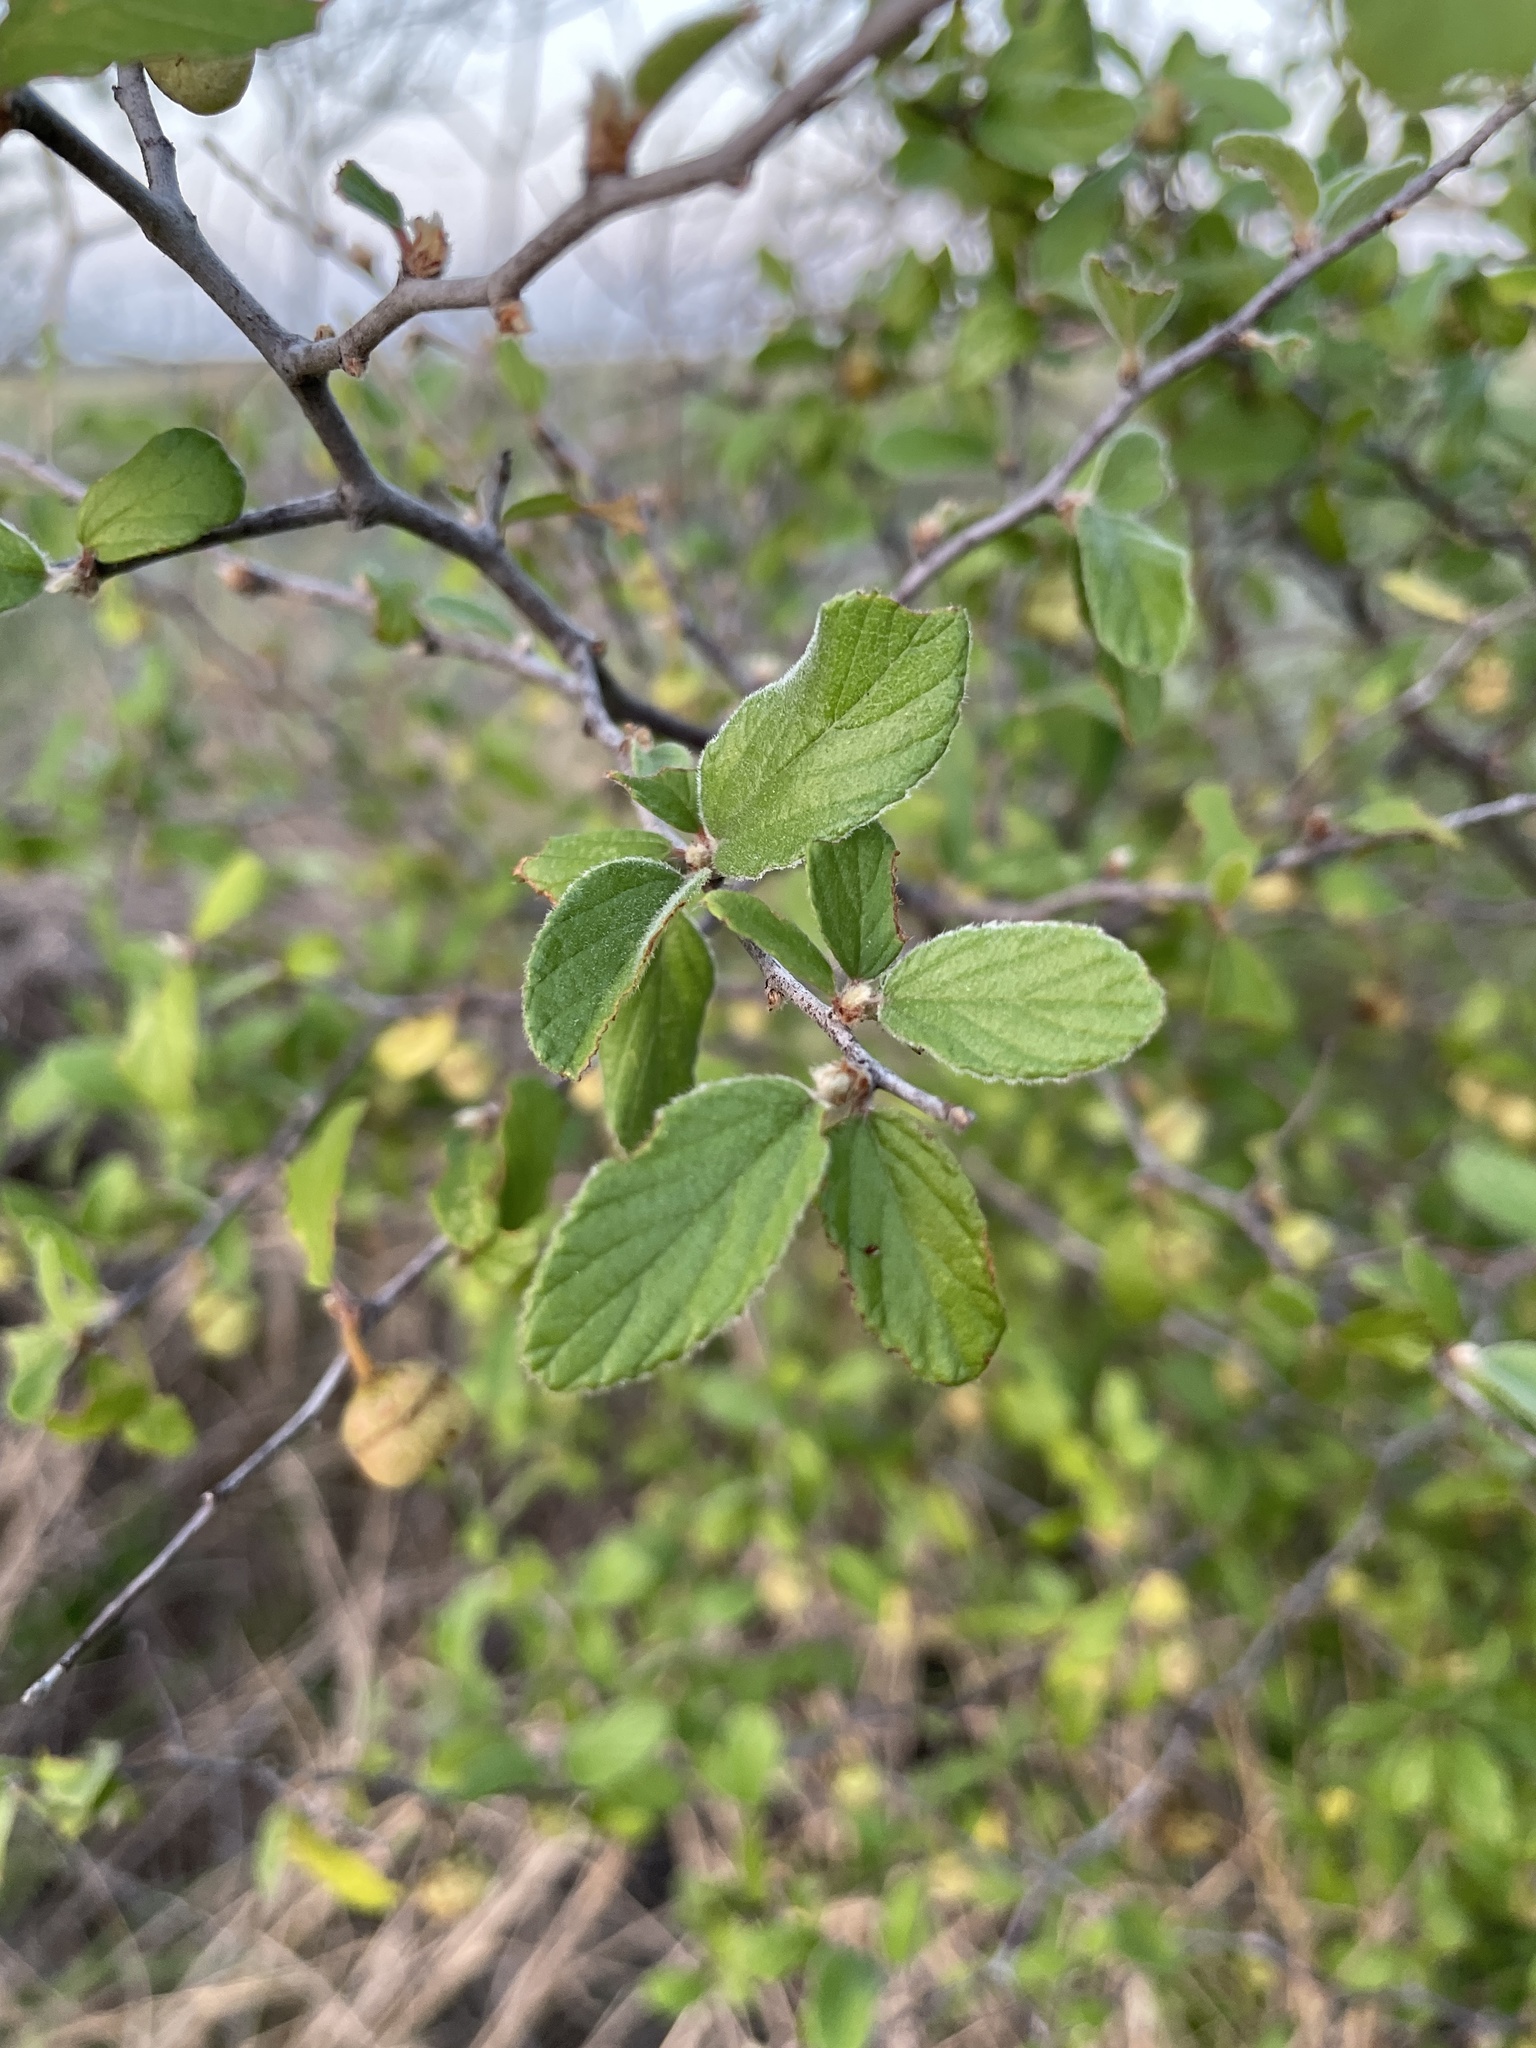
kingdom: Plantae
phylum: Tracheophyta
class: Magnoliopsida
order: Rosales
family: Rhamnaceae
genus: Colubrina
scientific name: Colubrina texensis
